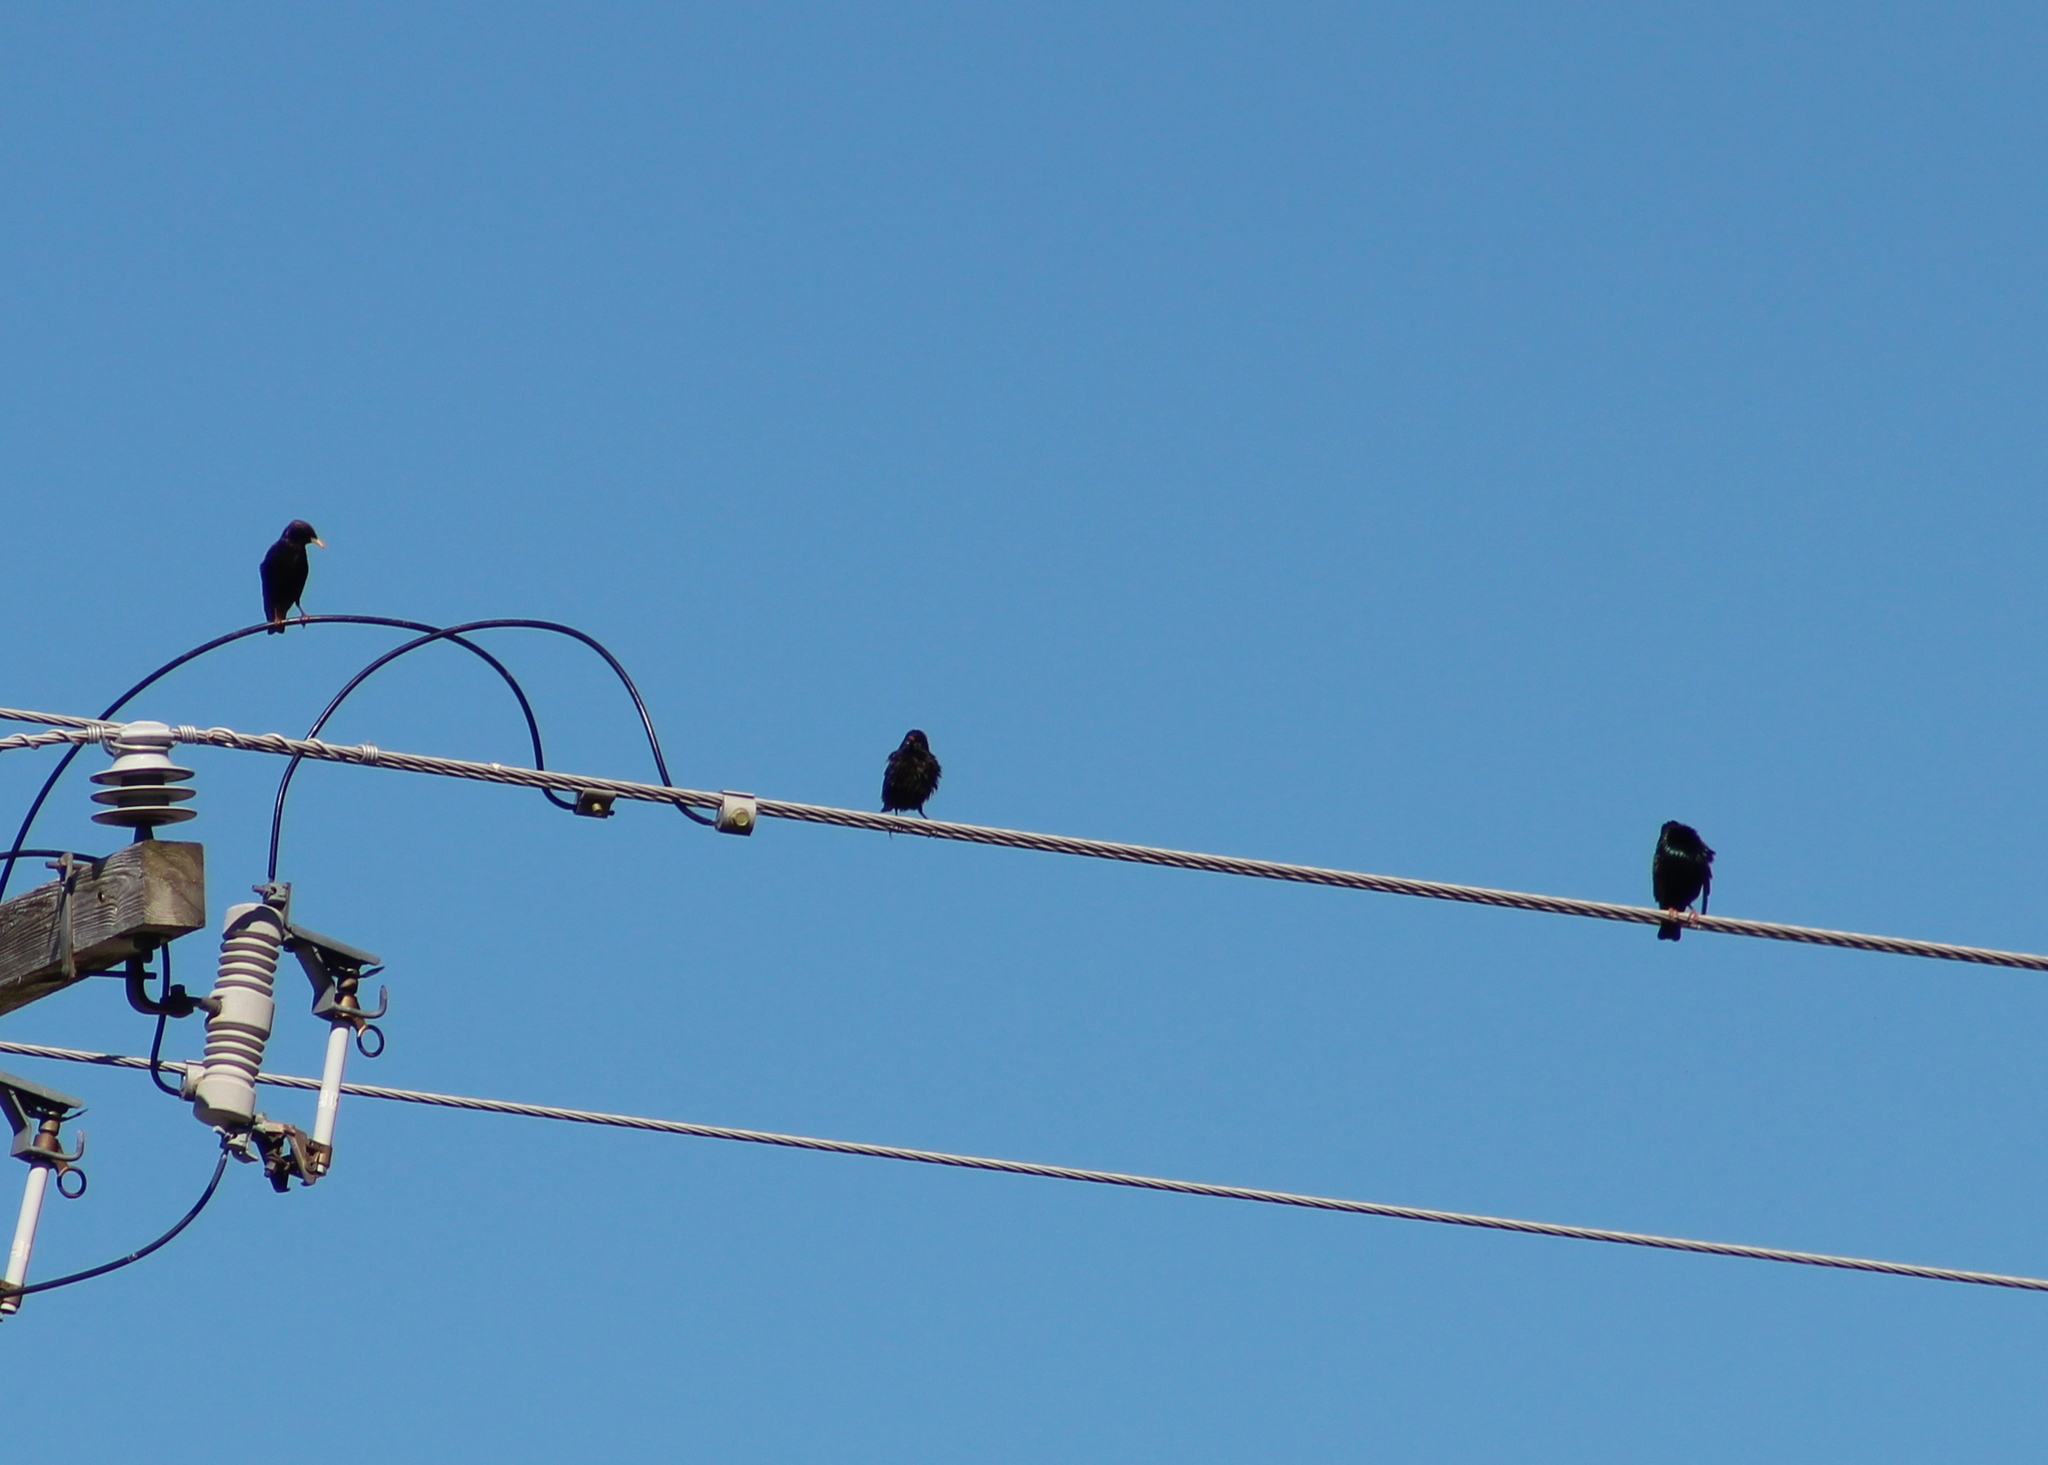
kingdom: Animalia
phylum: Chordata
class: Aves
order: Passeriformes
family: Sturnidae
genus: Sturnus
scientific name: Sturnus vulgaris
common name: Common starling
